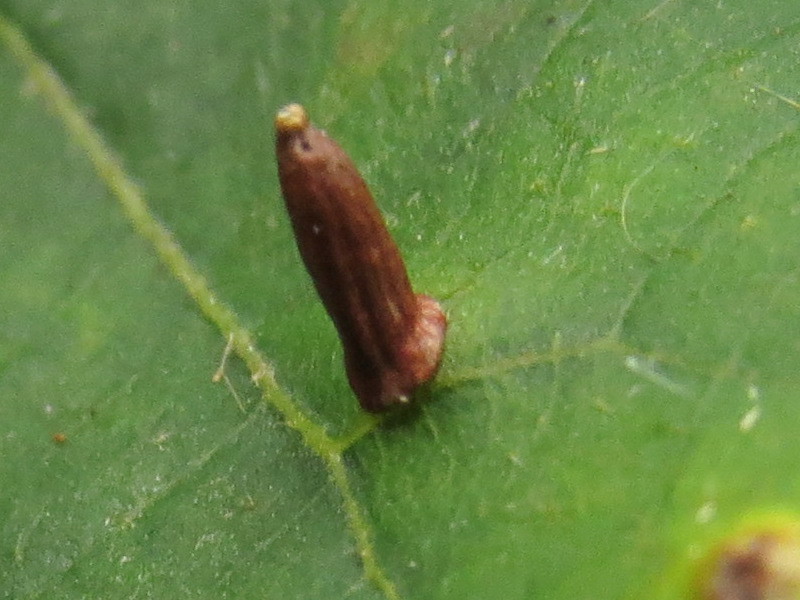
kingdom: Animalia
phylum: Arthropoda
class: Insecta
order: Diptera
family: Cecidomyiidae
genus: Caryomyia
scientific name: Caryomyia urnula
